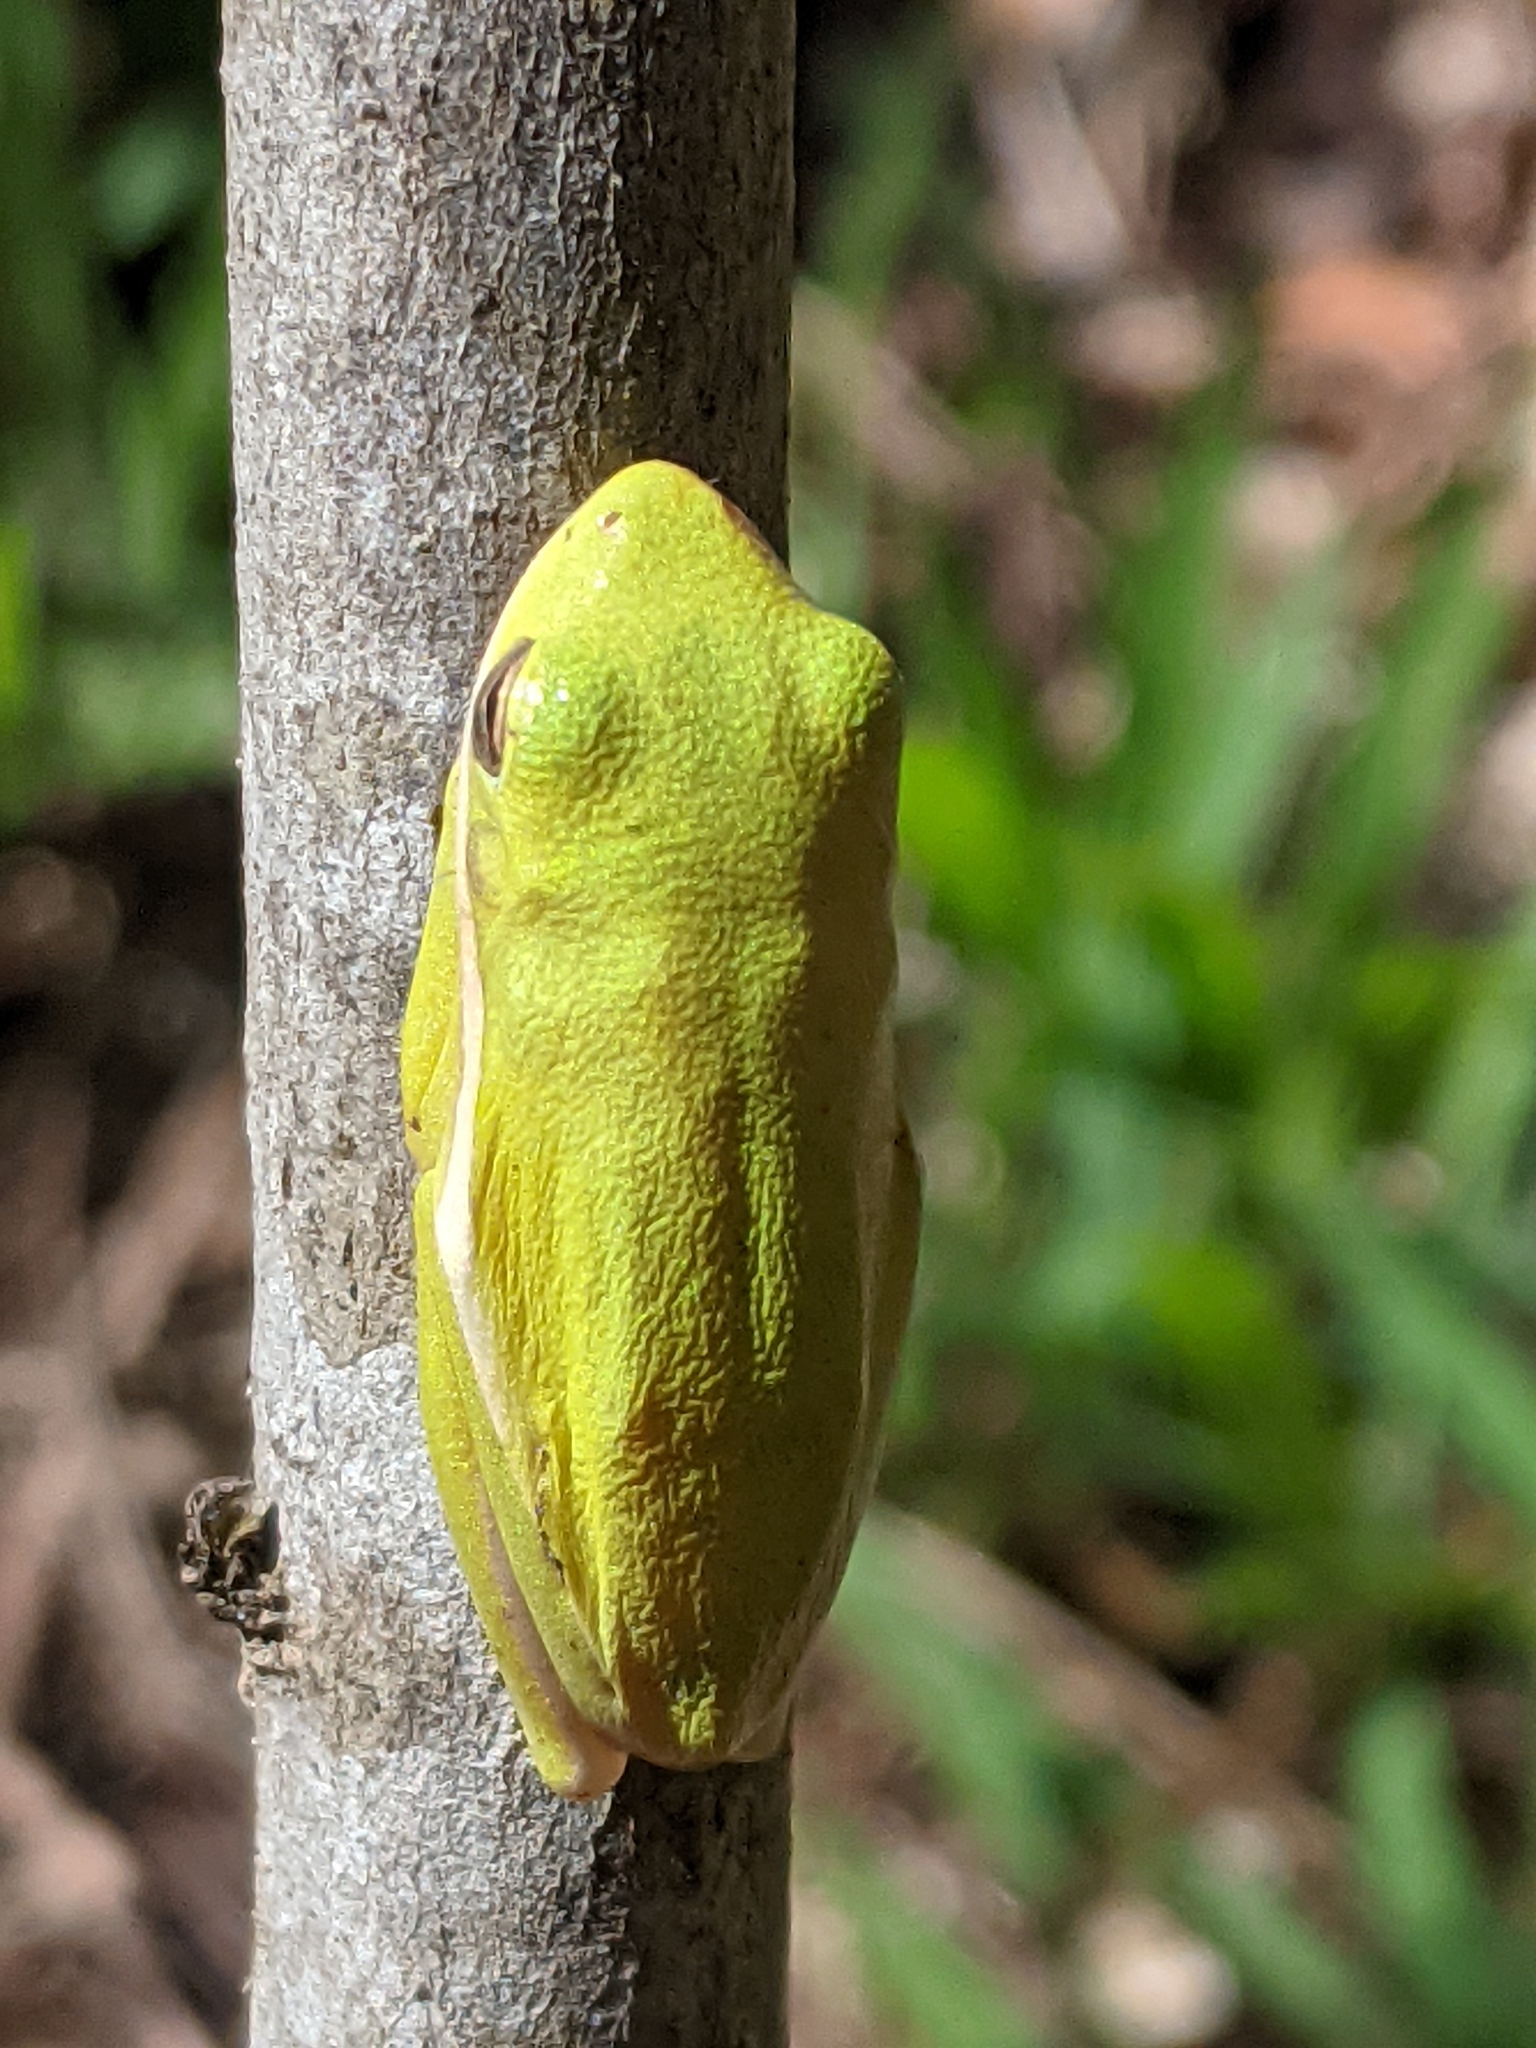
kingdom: Animalia
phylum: Chordata
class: Amphibia
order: Anura
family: Hylidae
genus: Dryophytes
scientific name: Dryophytes cinereus
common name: Green treefrog
